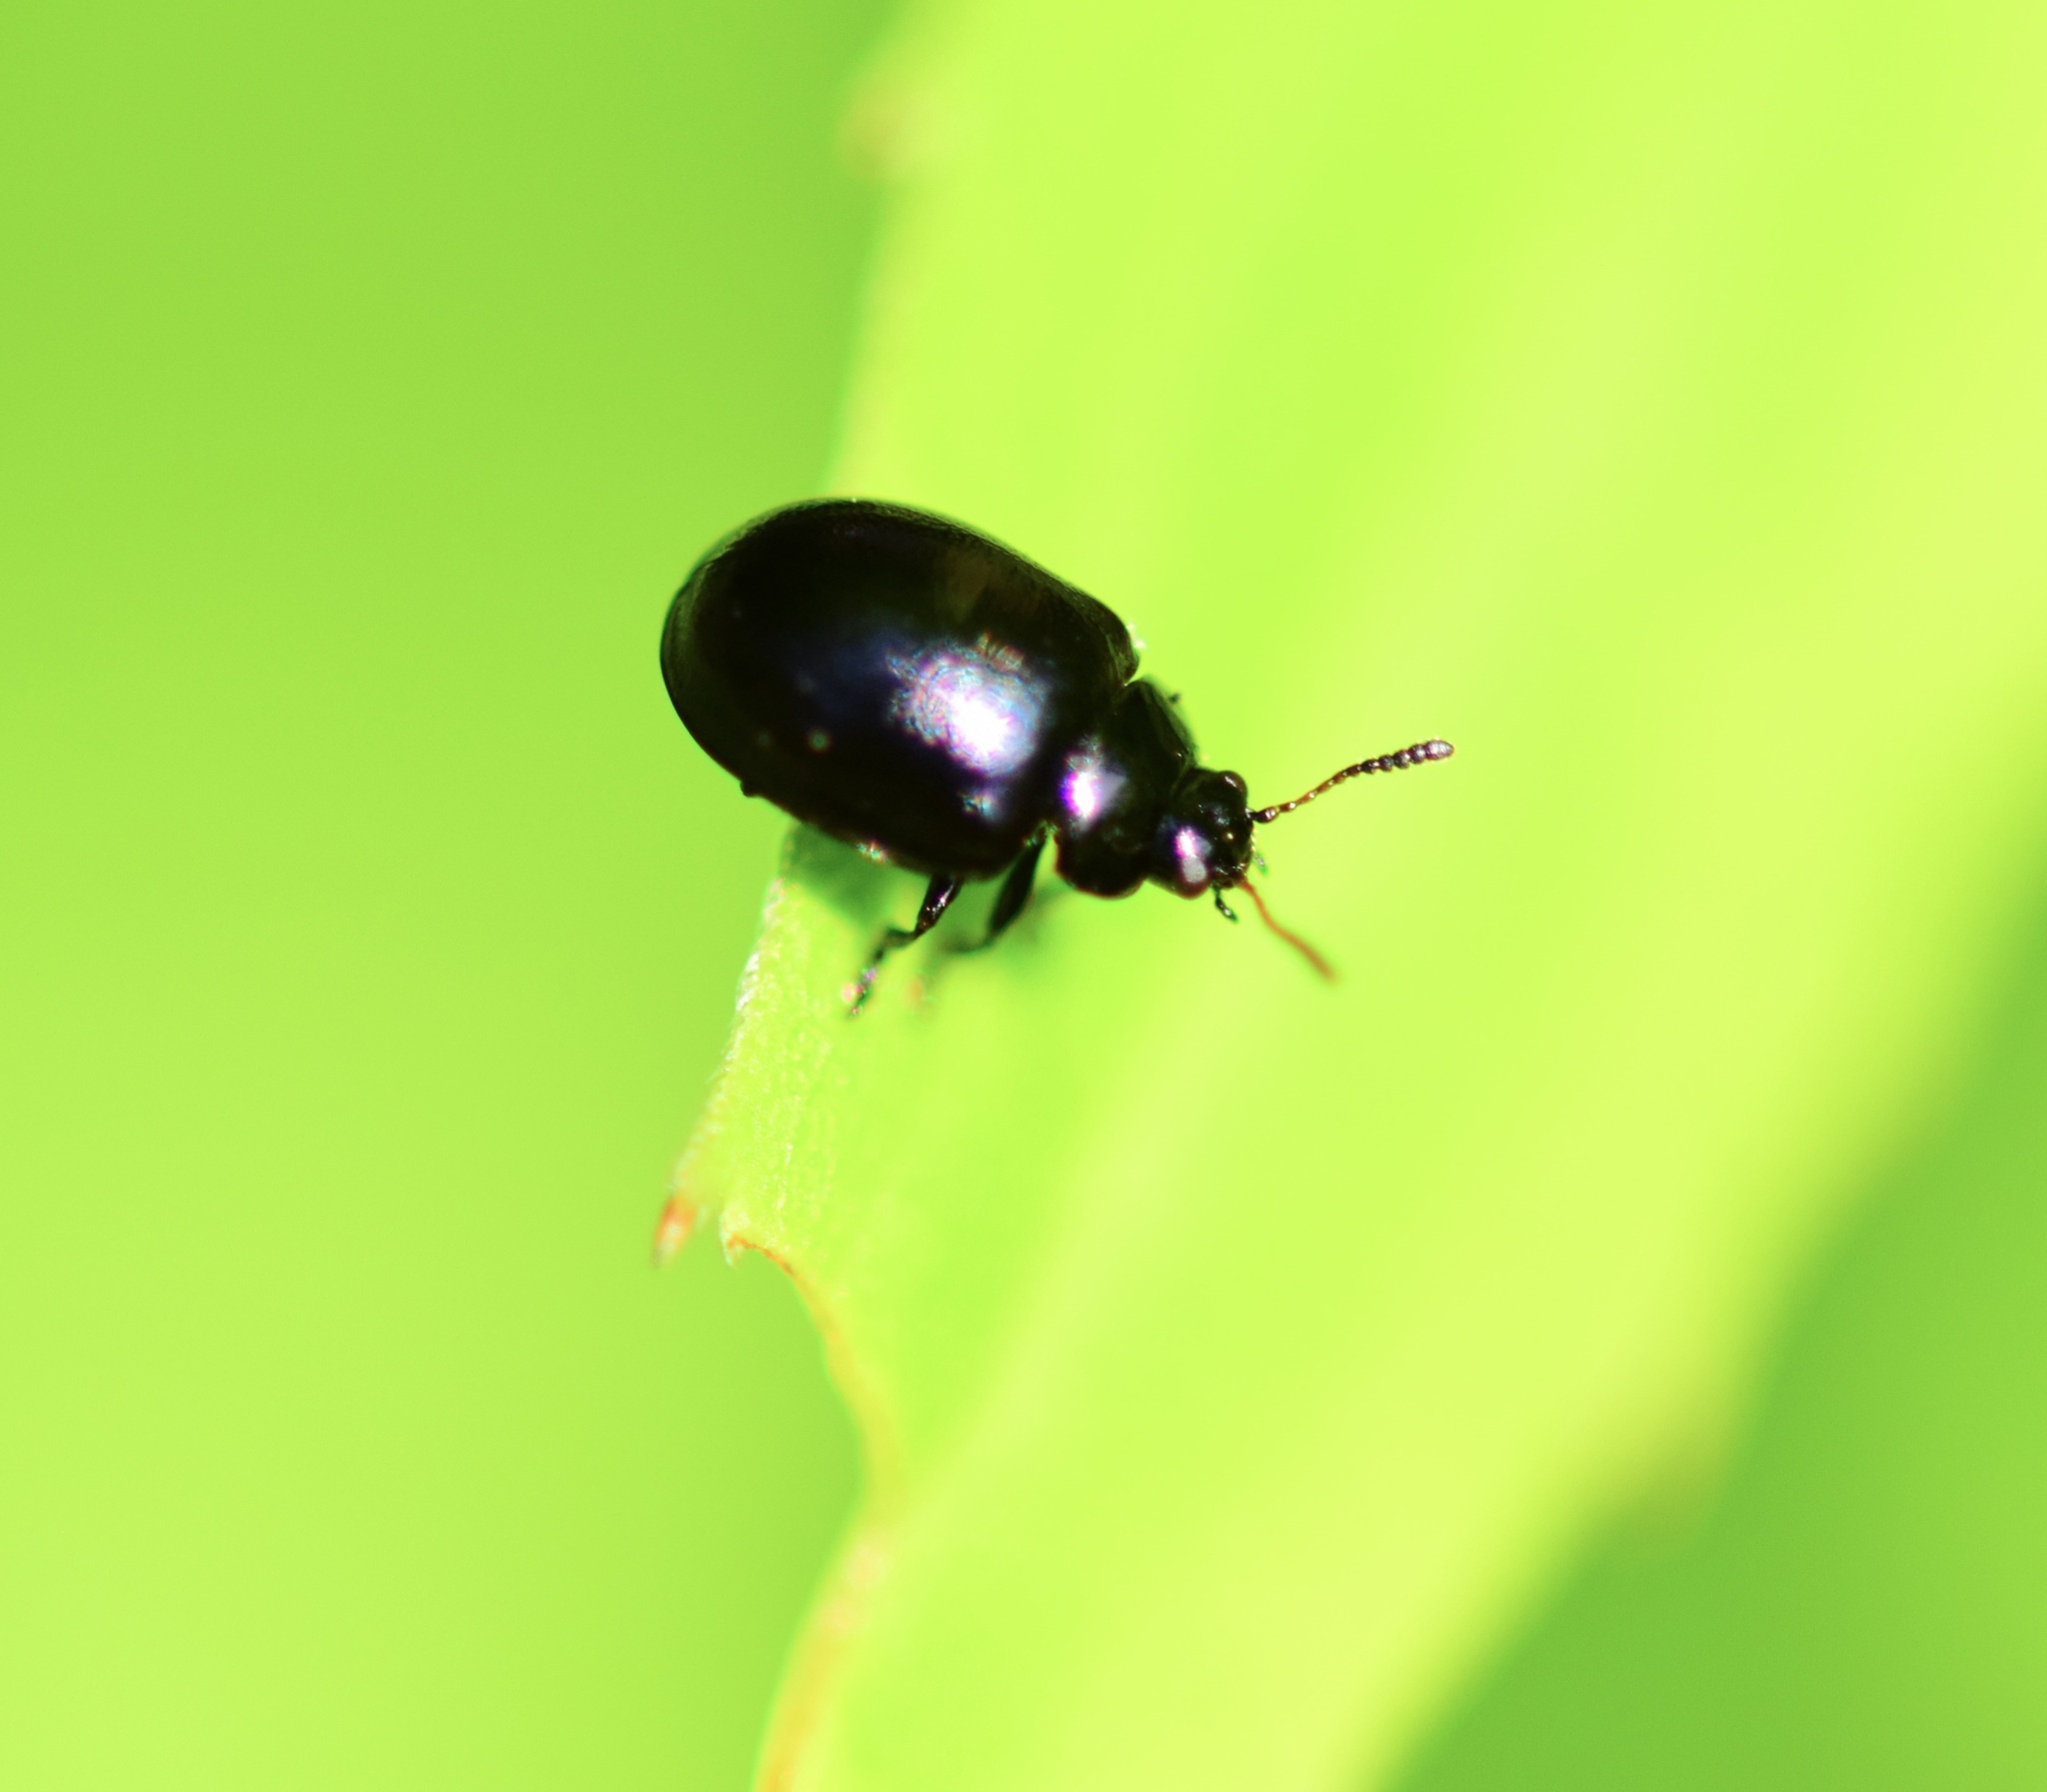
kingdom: Animalia
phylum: Arthropoda
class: Insecta
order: Coleoptera
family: Chrysomelidae
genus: Plagiodera
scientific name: Plagiodera versicolora
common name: Imported willow leaf beetle
